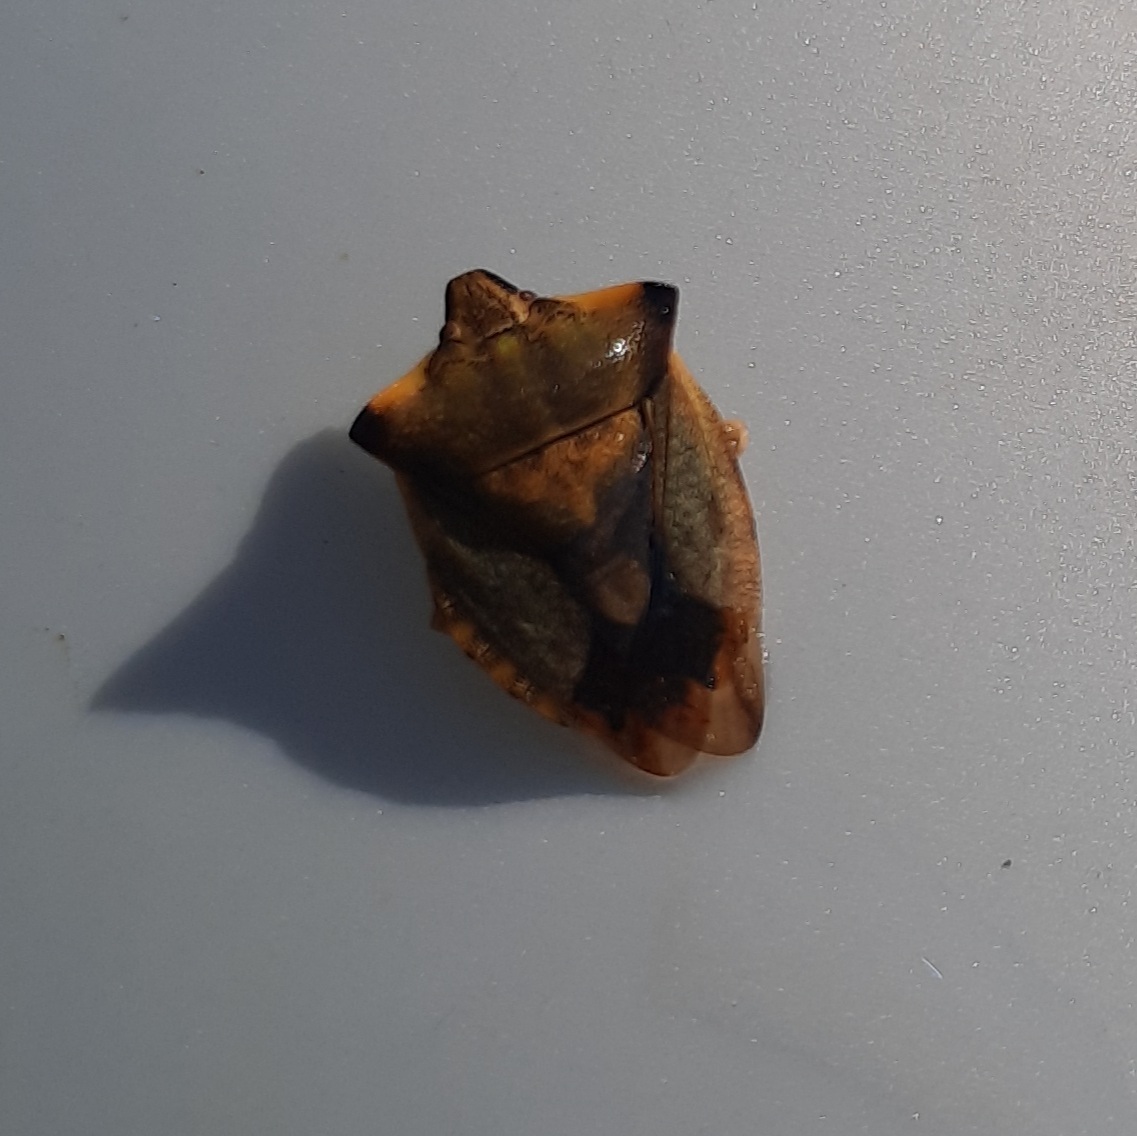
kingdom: Animalia
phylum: Arthropoda
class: Insecta
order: Hemiptera
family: Pentatomidae
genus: Carpocoris
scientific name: Carpocoris fuscispinus
